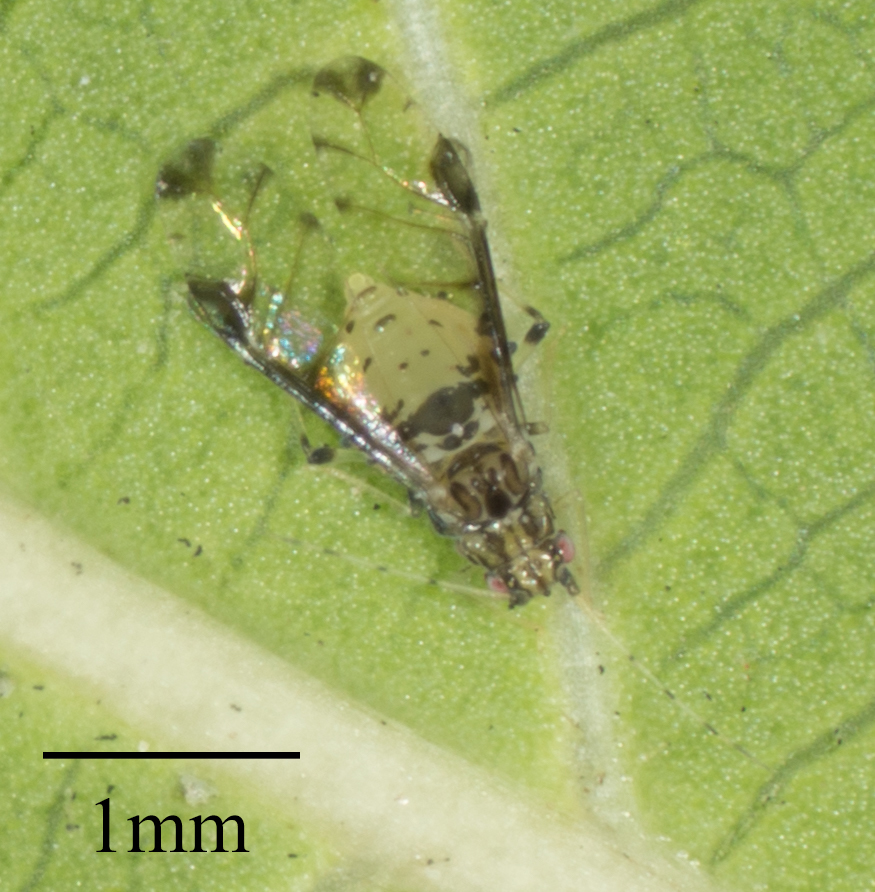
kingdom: Animalia
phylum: Arthropoda
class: Insecta
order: Hemiptera
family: Aphididae
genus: Sarucallis
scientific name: Sarucallis kahawaluokalani
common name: Crapemyrtle aphid
